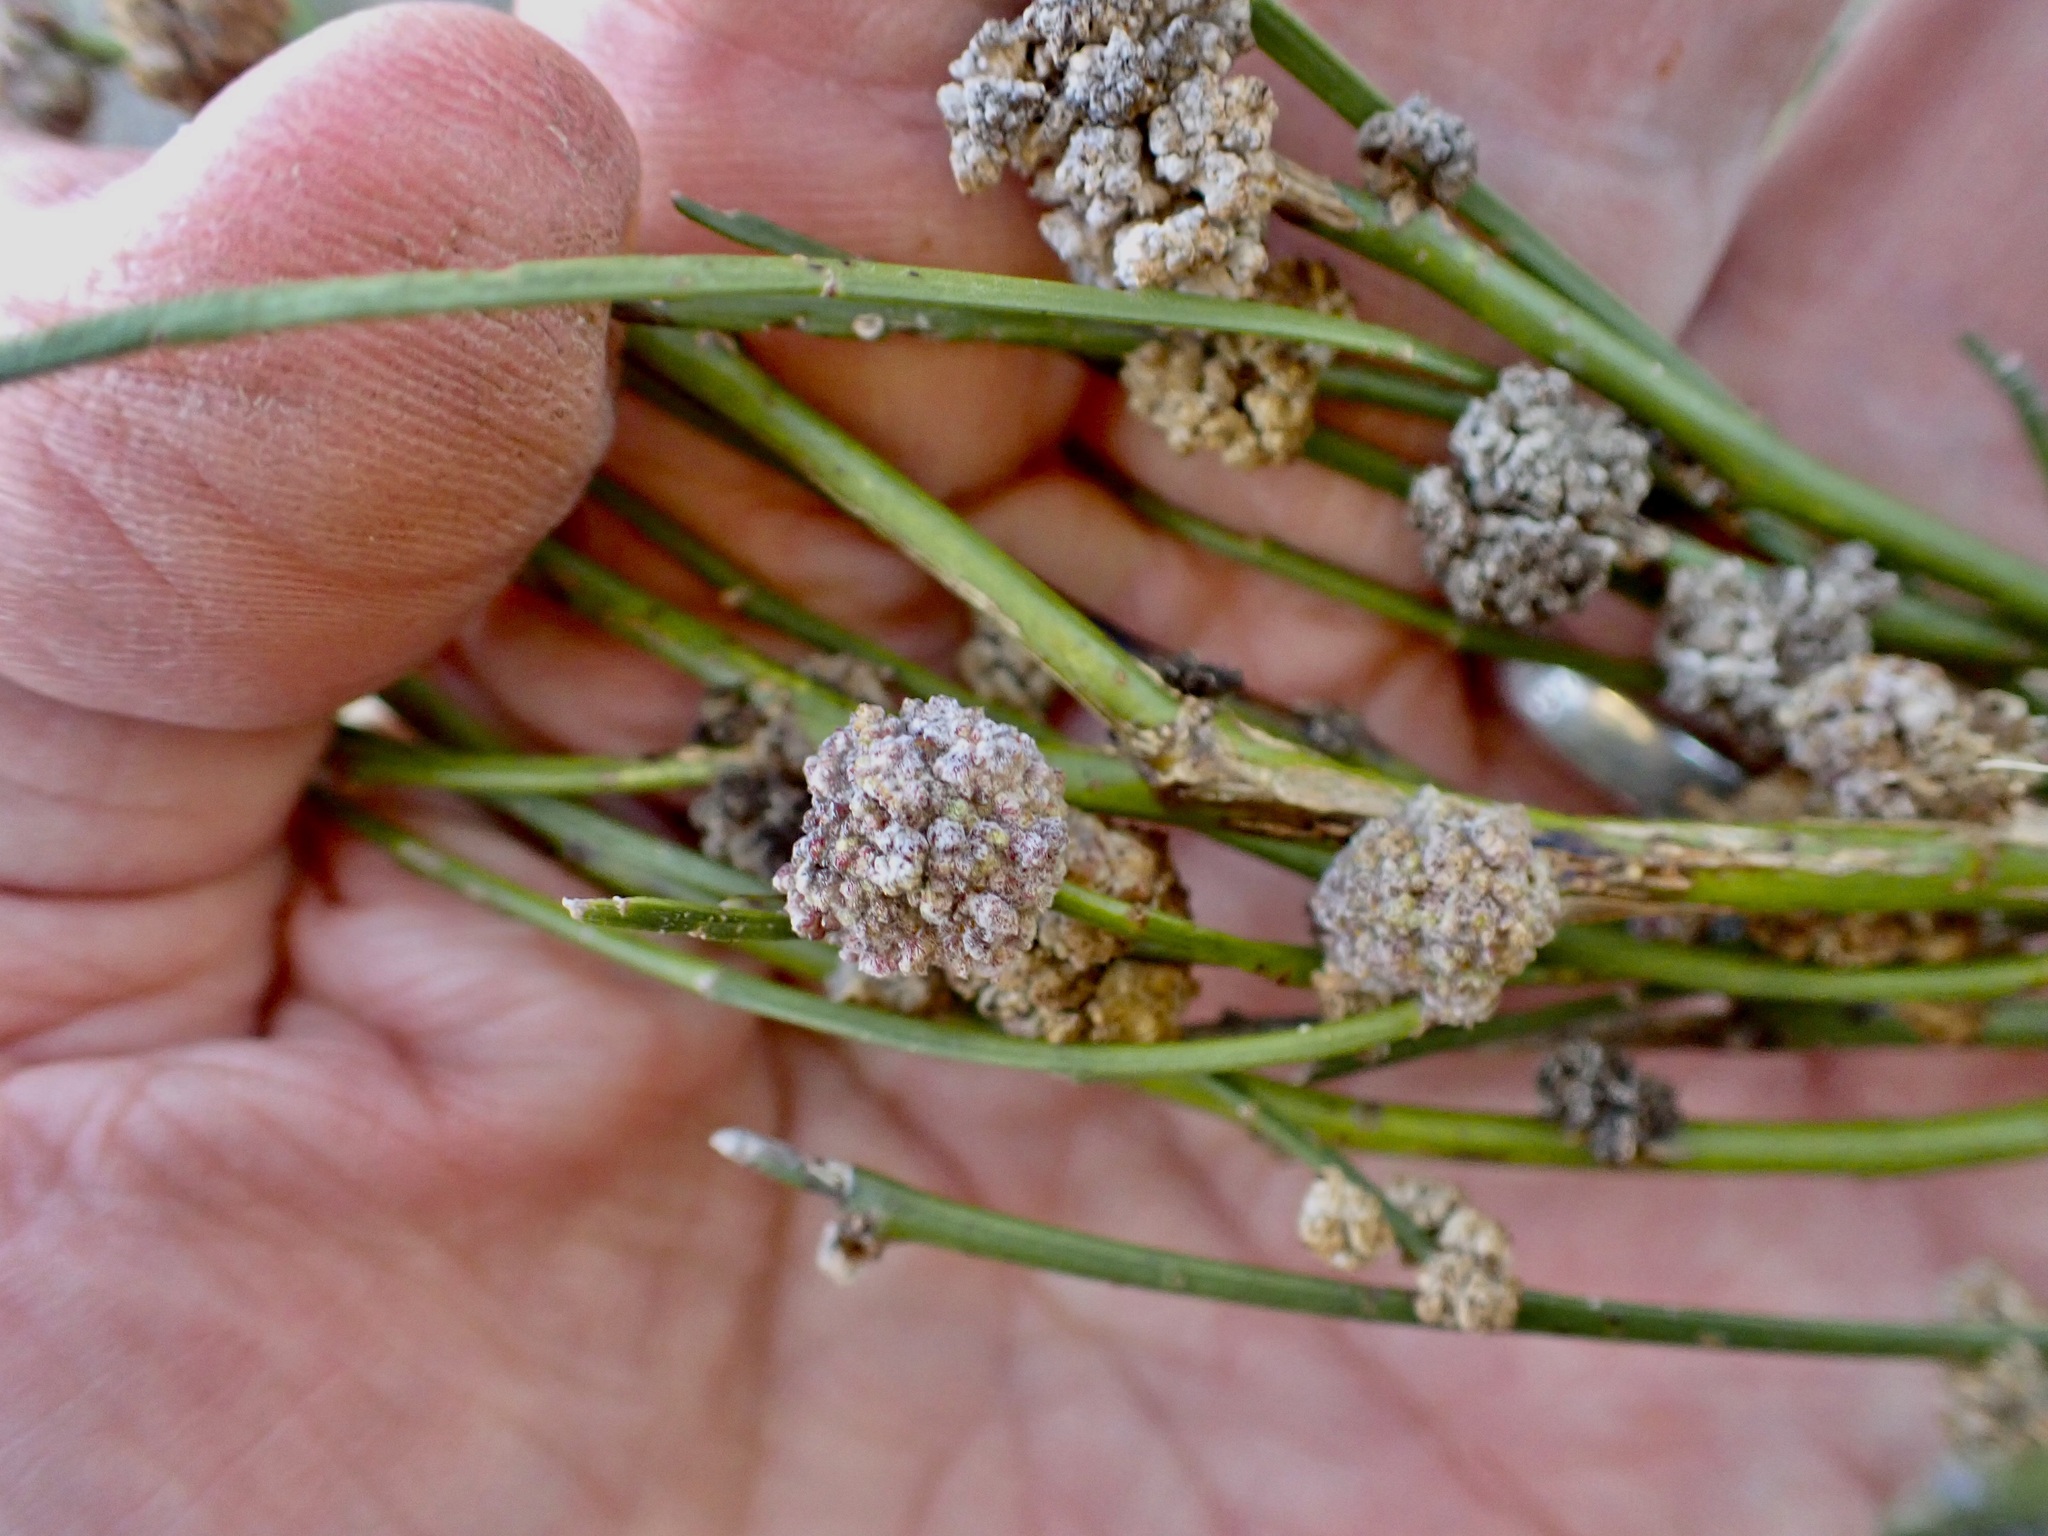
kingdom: Plantae
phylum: Tracheophyta
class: Magnoliopsida
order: Fabales
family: Fabaceae
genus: Carmichaelia
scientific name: Carmichaelia australis
